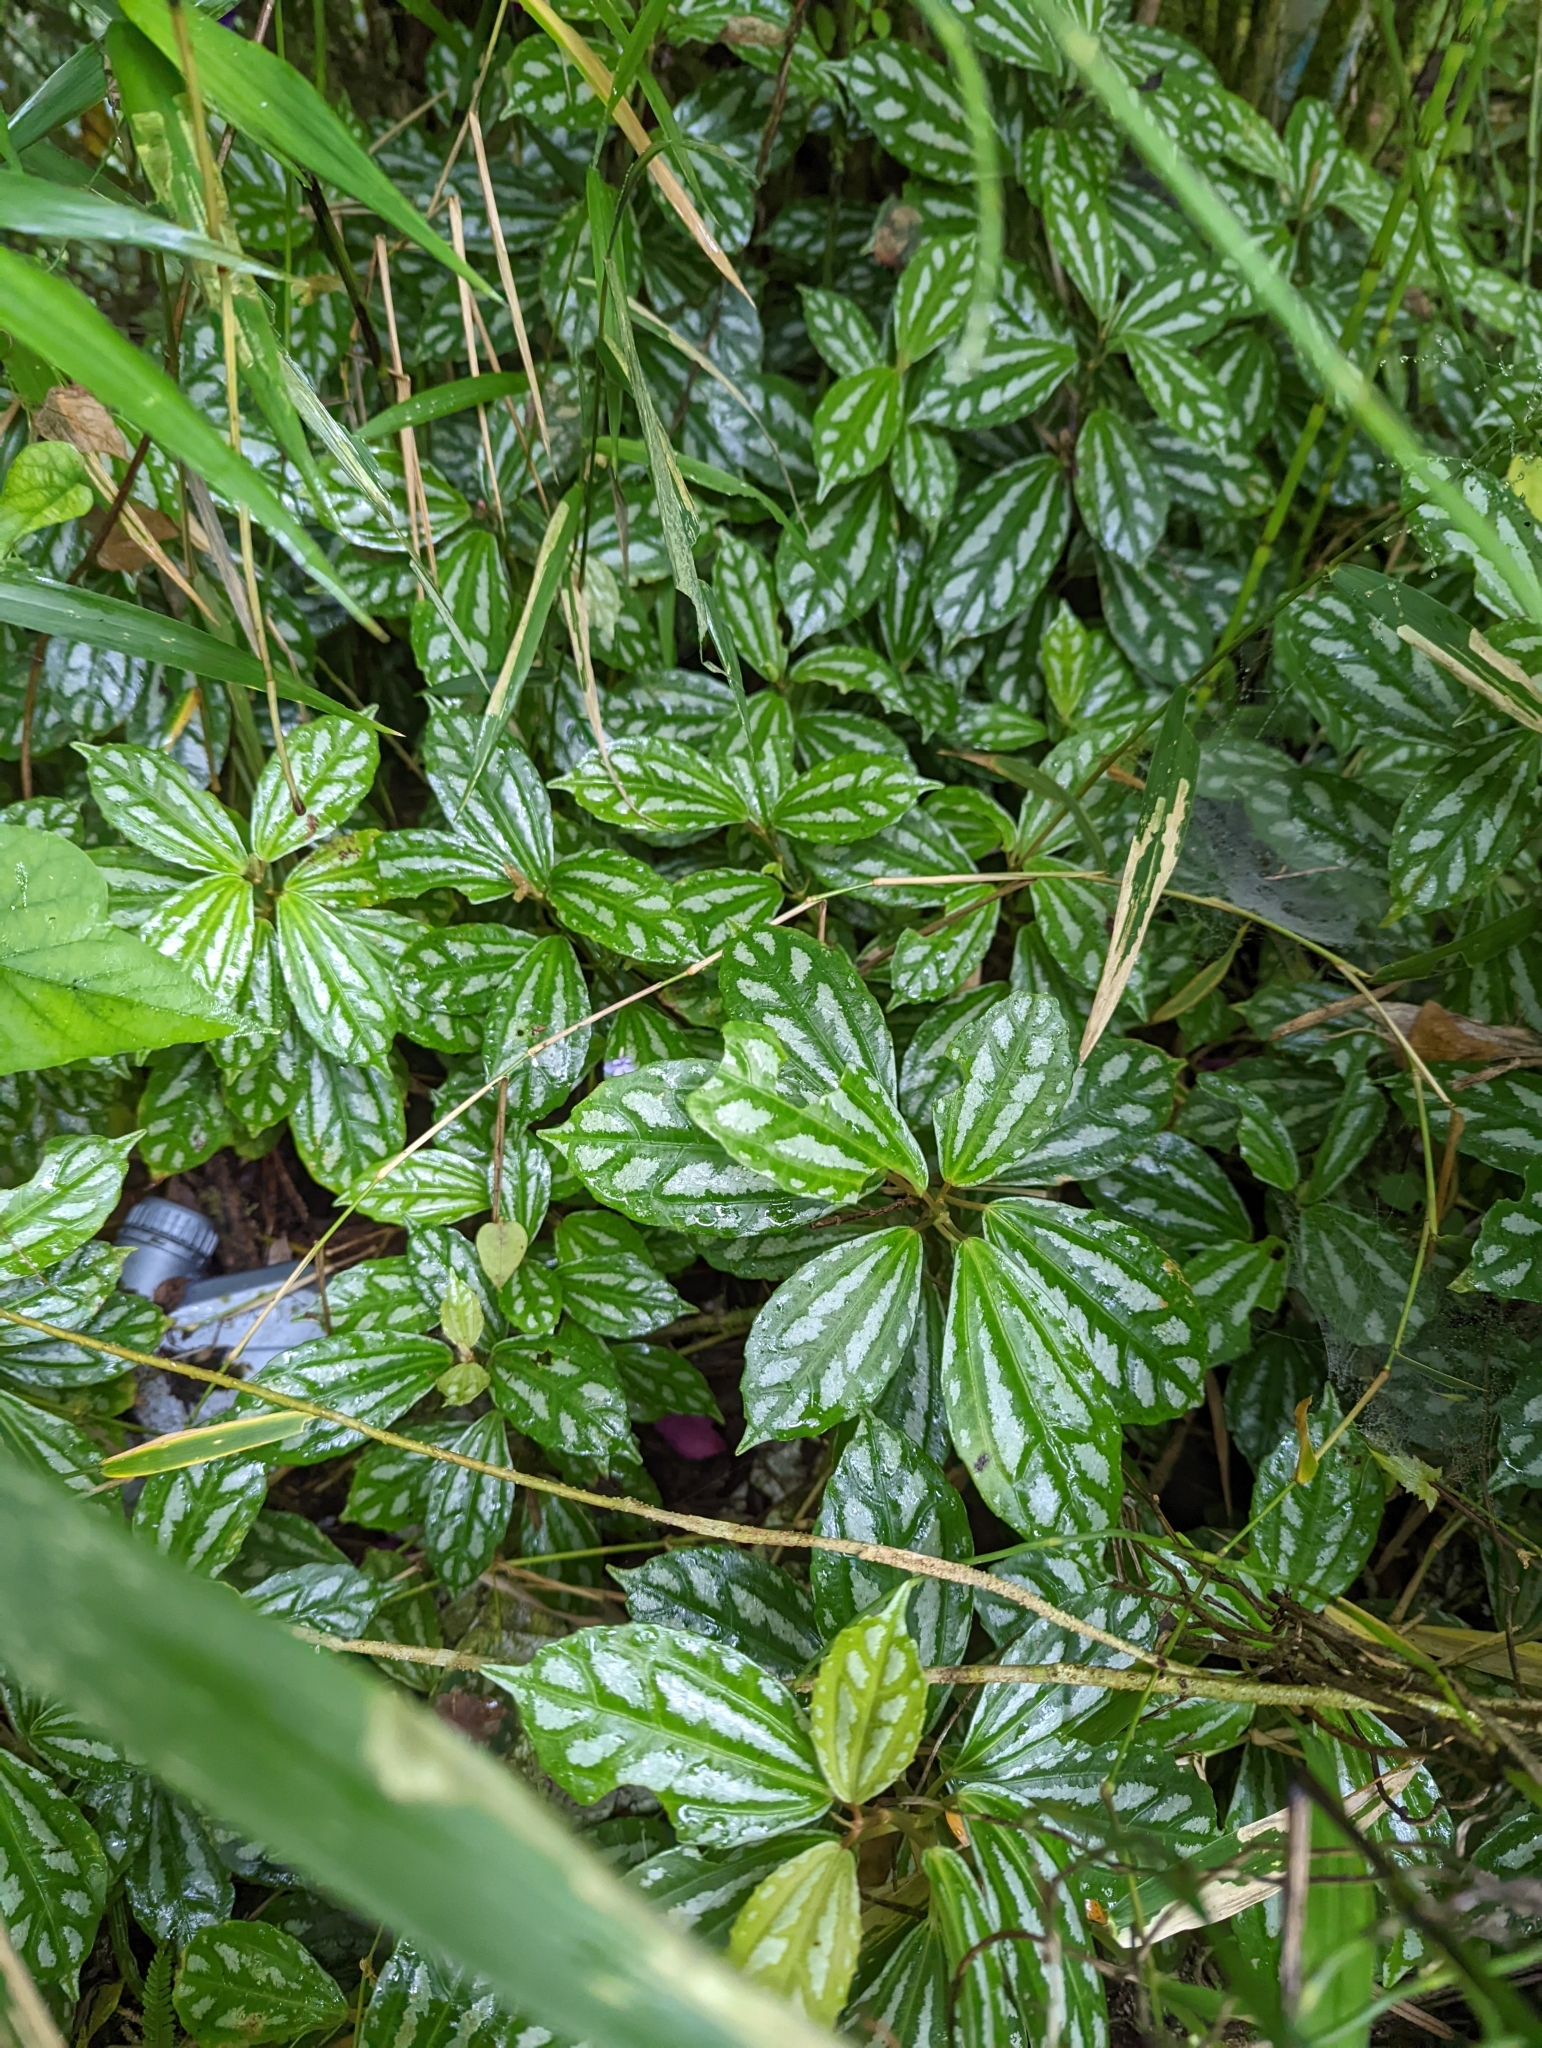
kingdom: Plantae
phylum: Tracheophyta
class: Magnoliopsida
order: Rosales
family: Urticaceae
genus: Pilea
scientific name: Pilea cadierei
